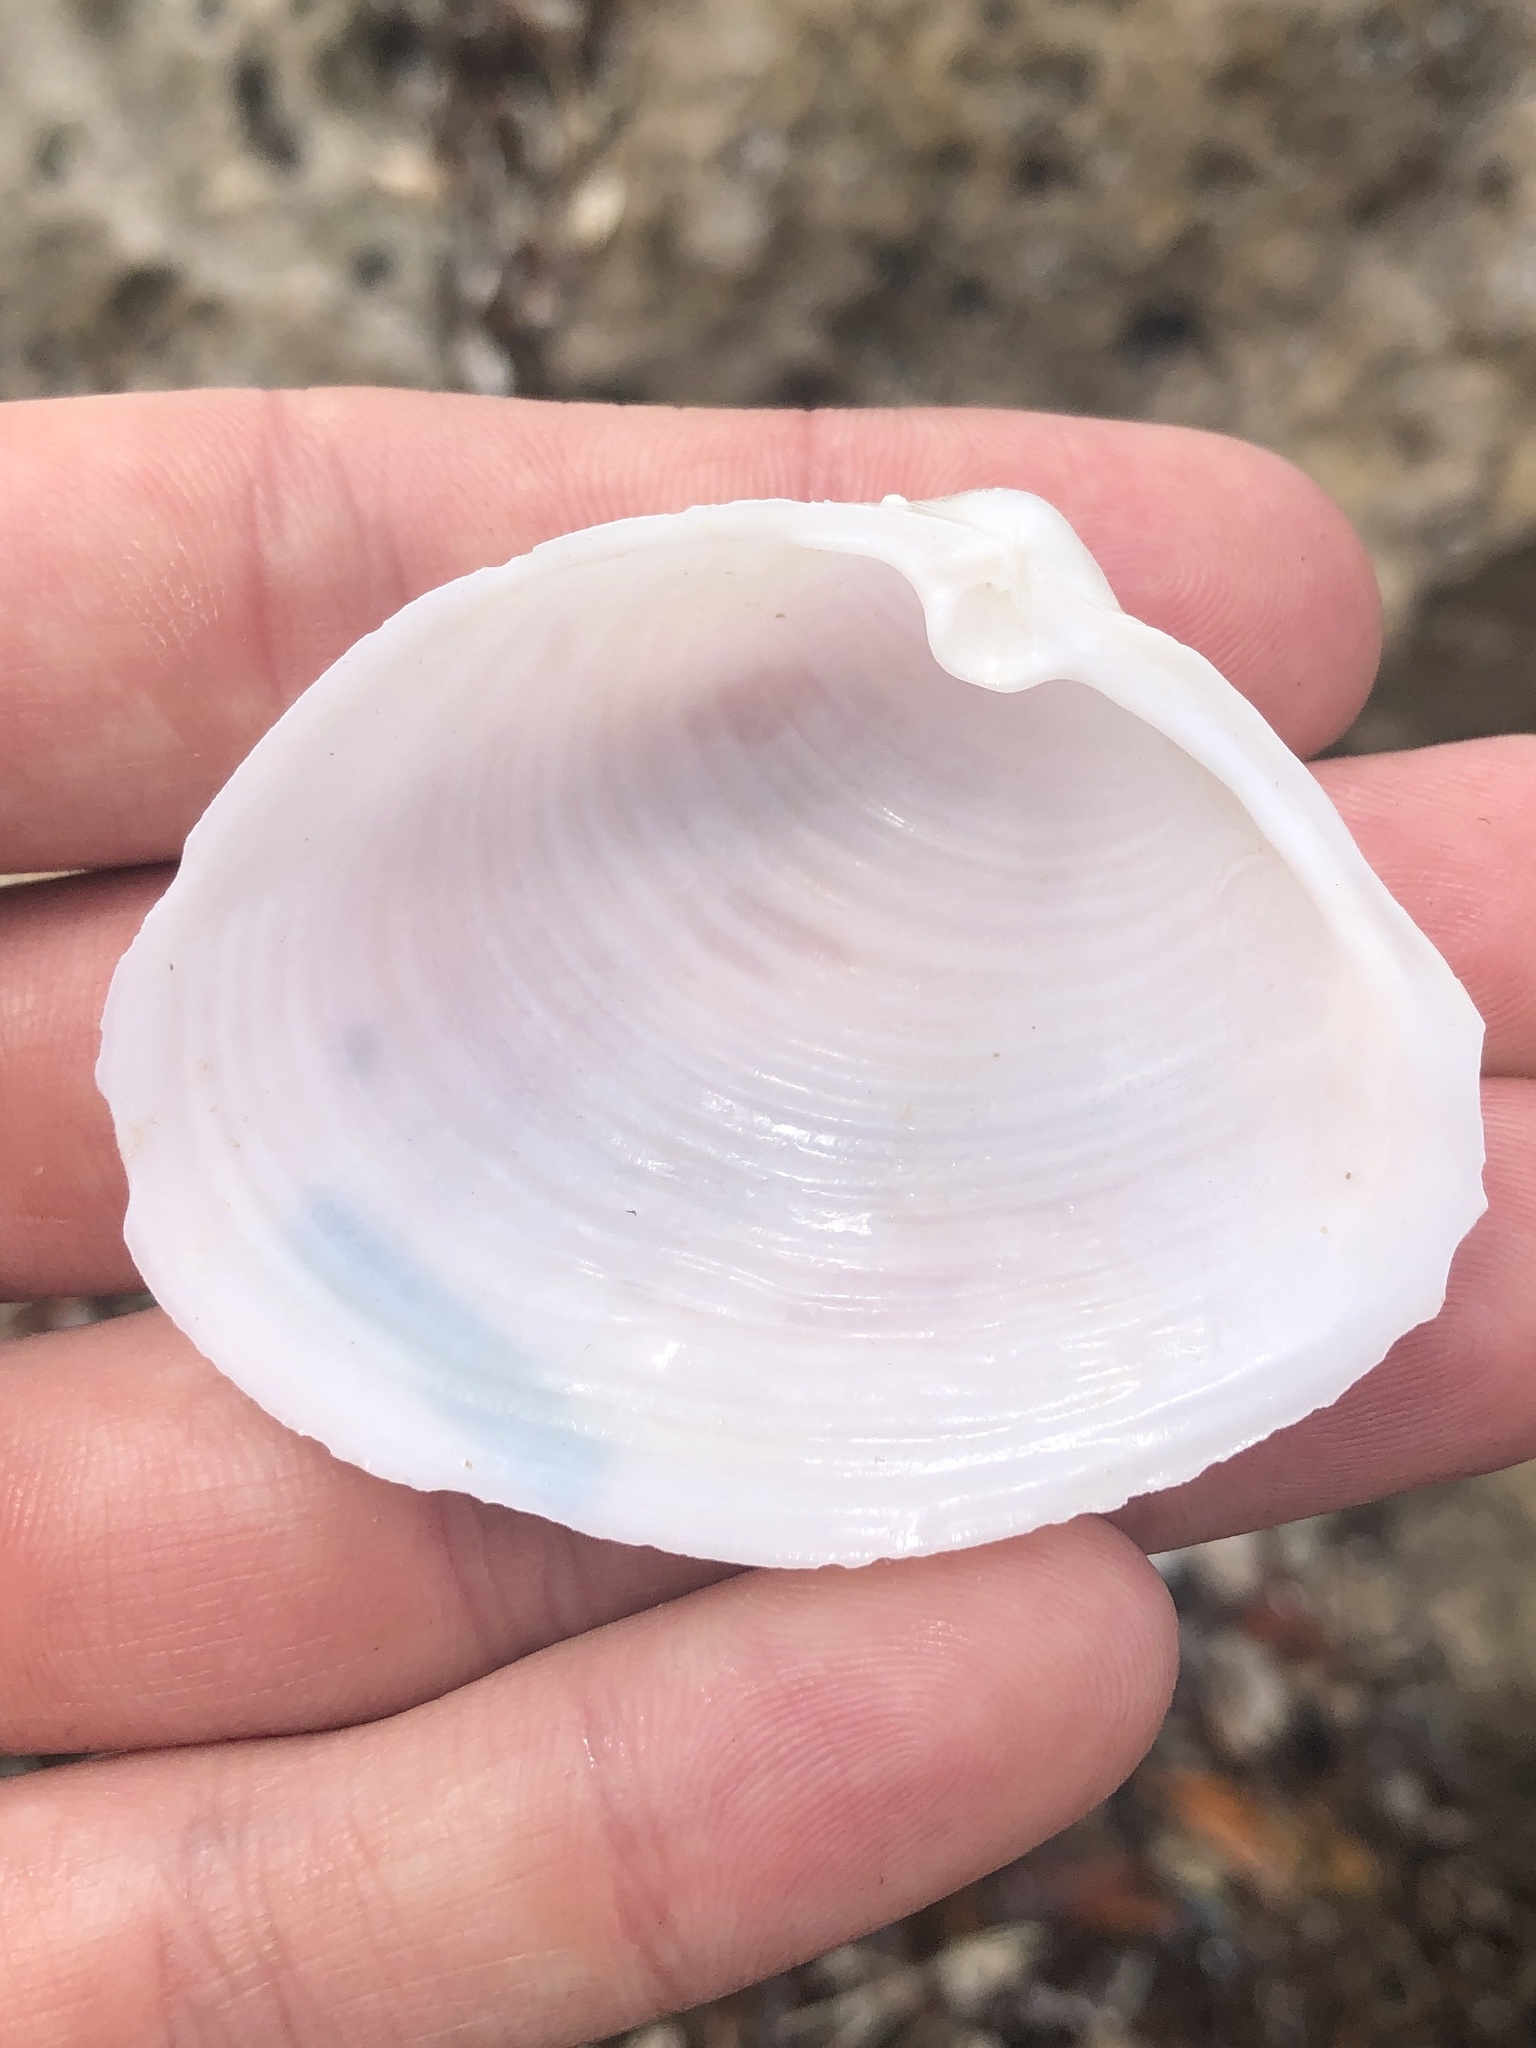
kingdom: Animalia
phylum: Mollusca
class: Bivalvia
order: Venerida
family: Anatinellidae
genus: Raeta
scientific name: Raeta plicatella
